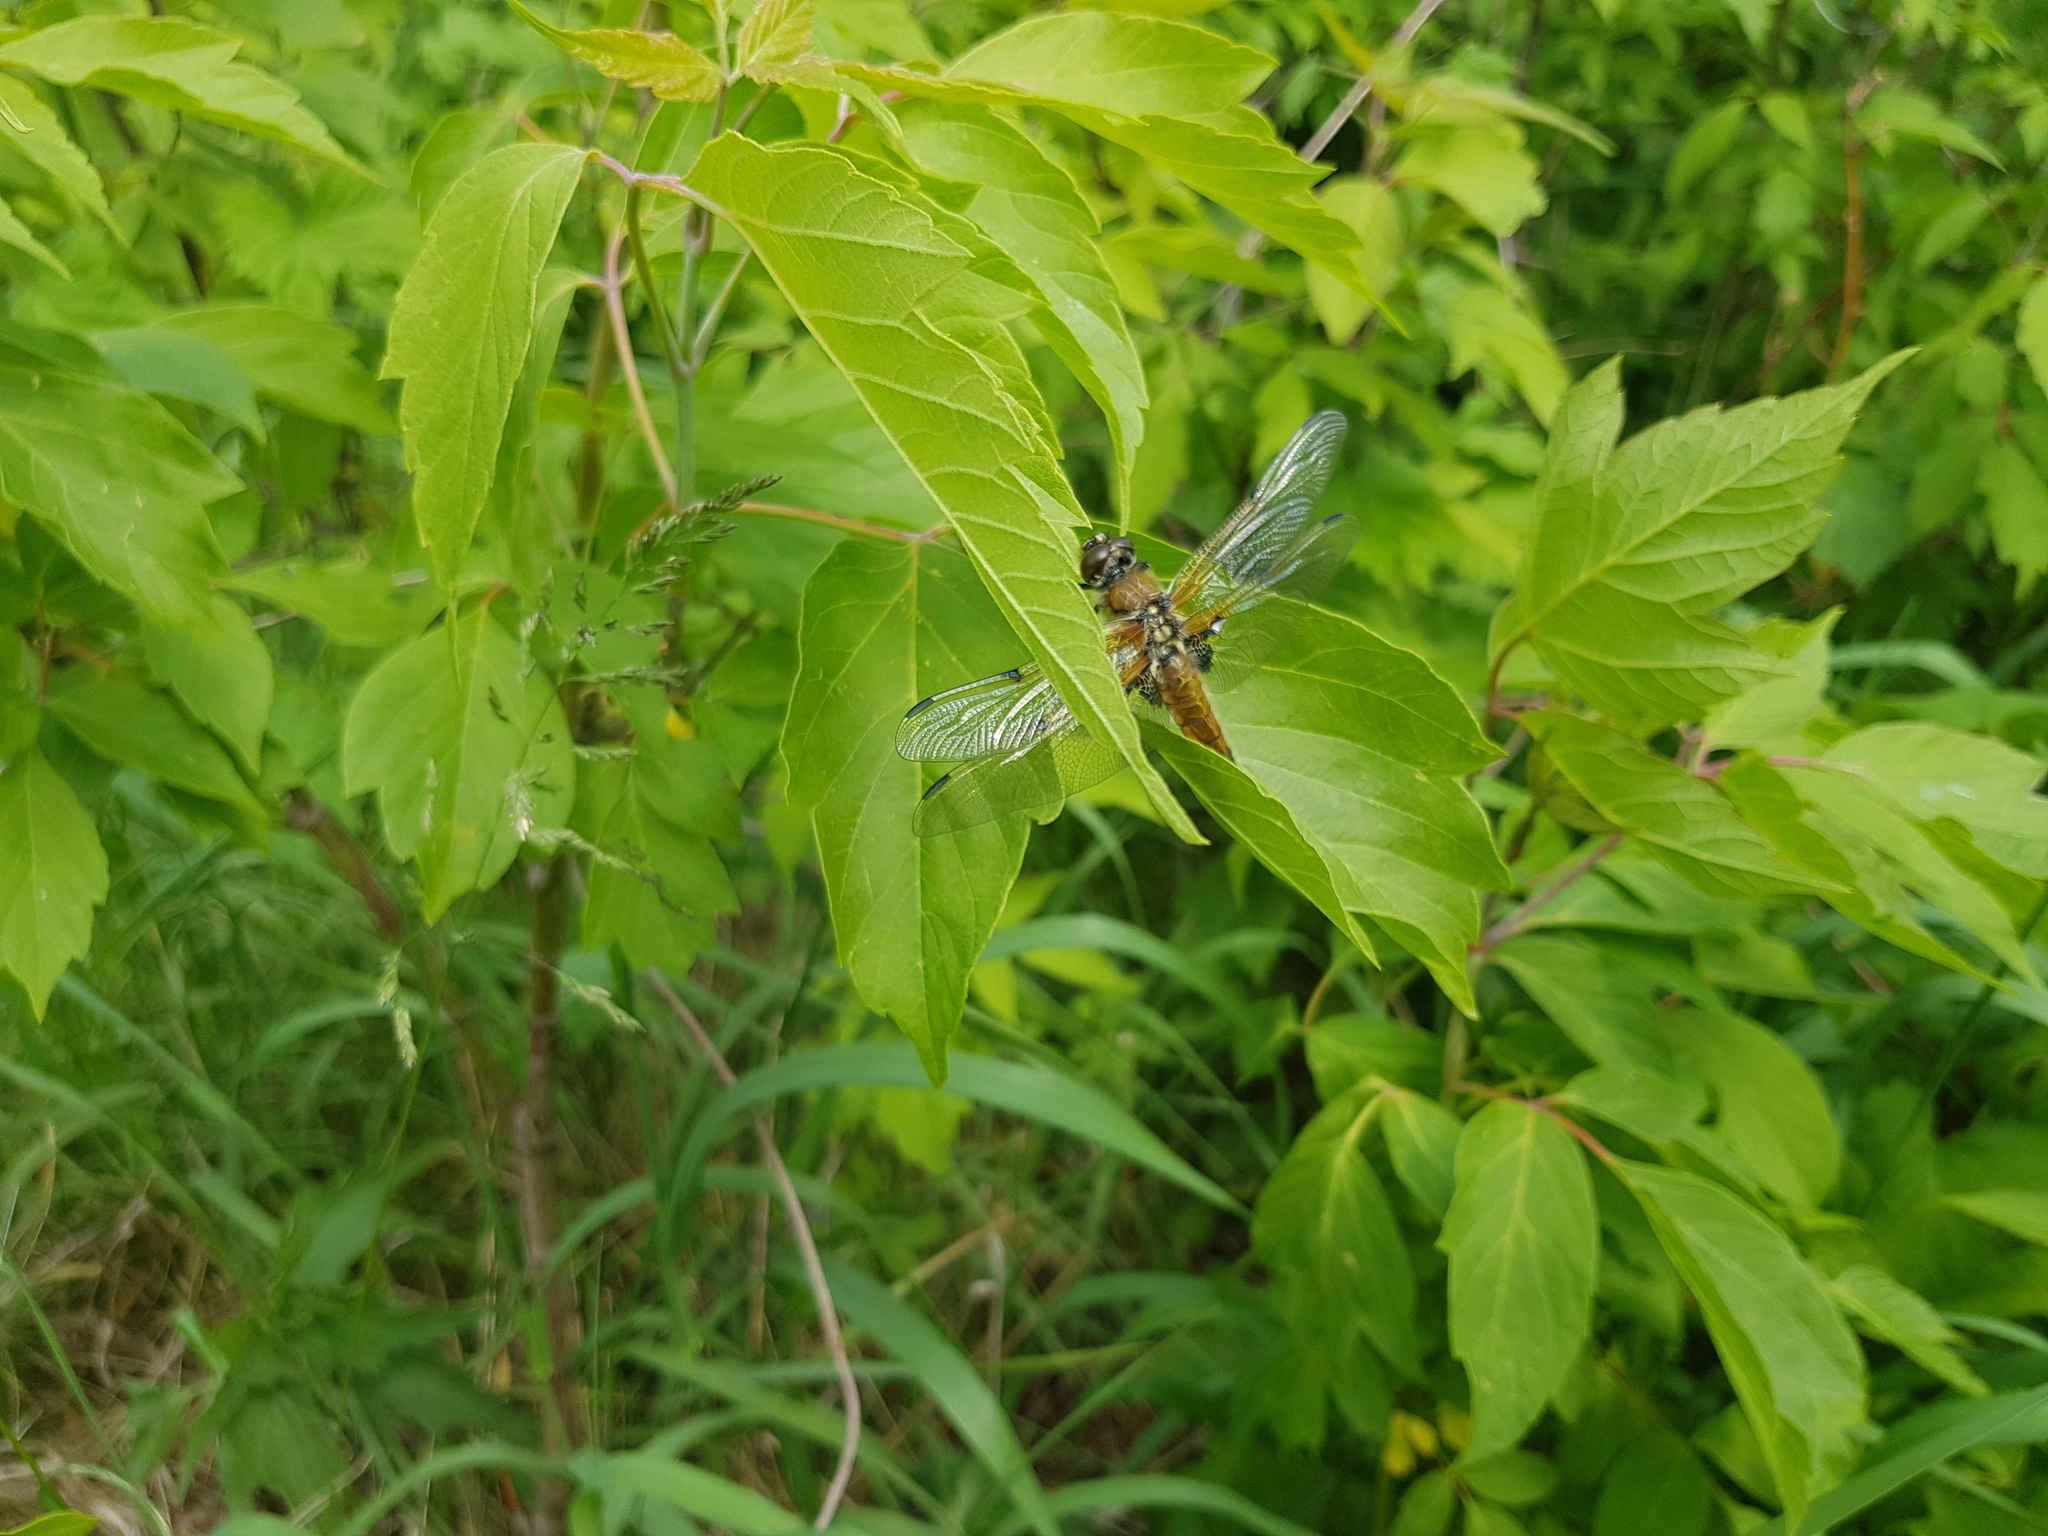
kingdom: Animalia
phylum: Arthropoda
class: Insecta
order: Odonata
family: Libellulidae
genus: Libellula
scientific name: Libellula quadrimaculata
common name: Four-spotted chaser
